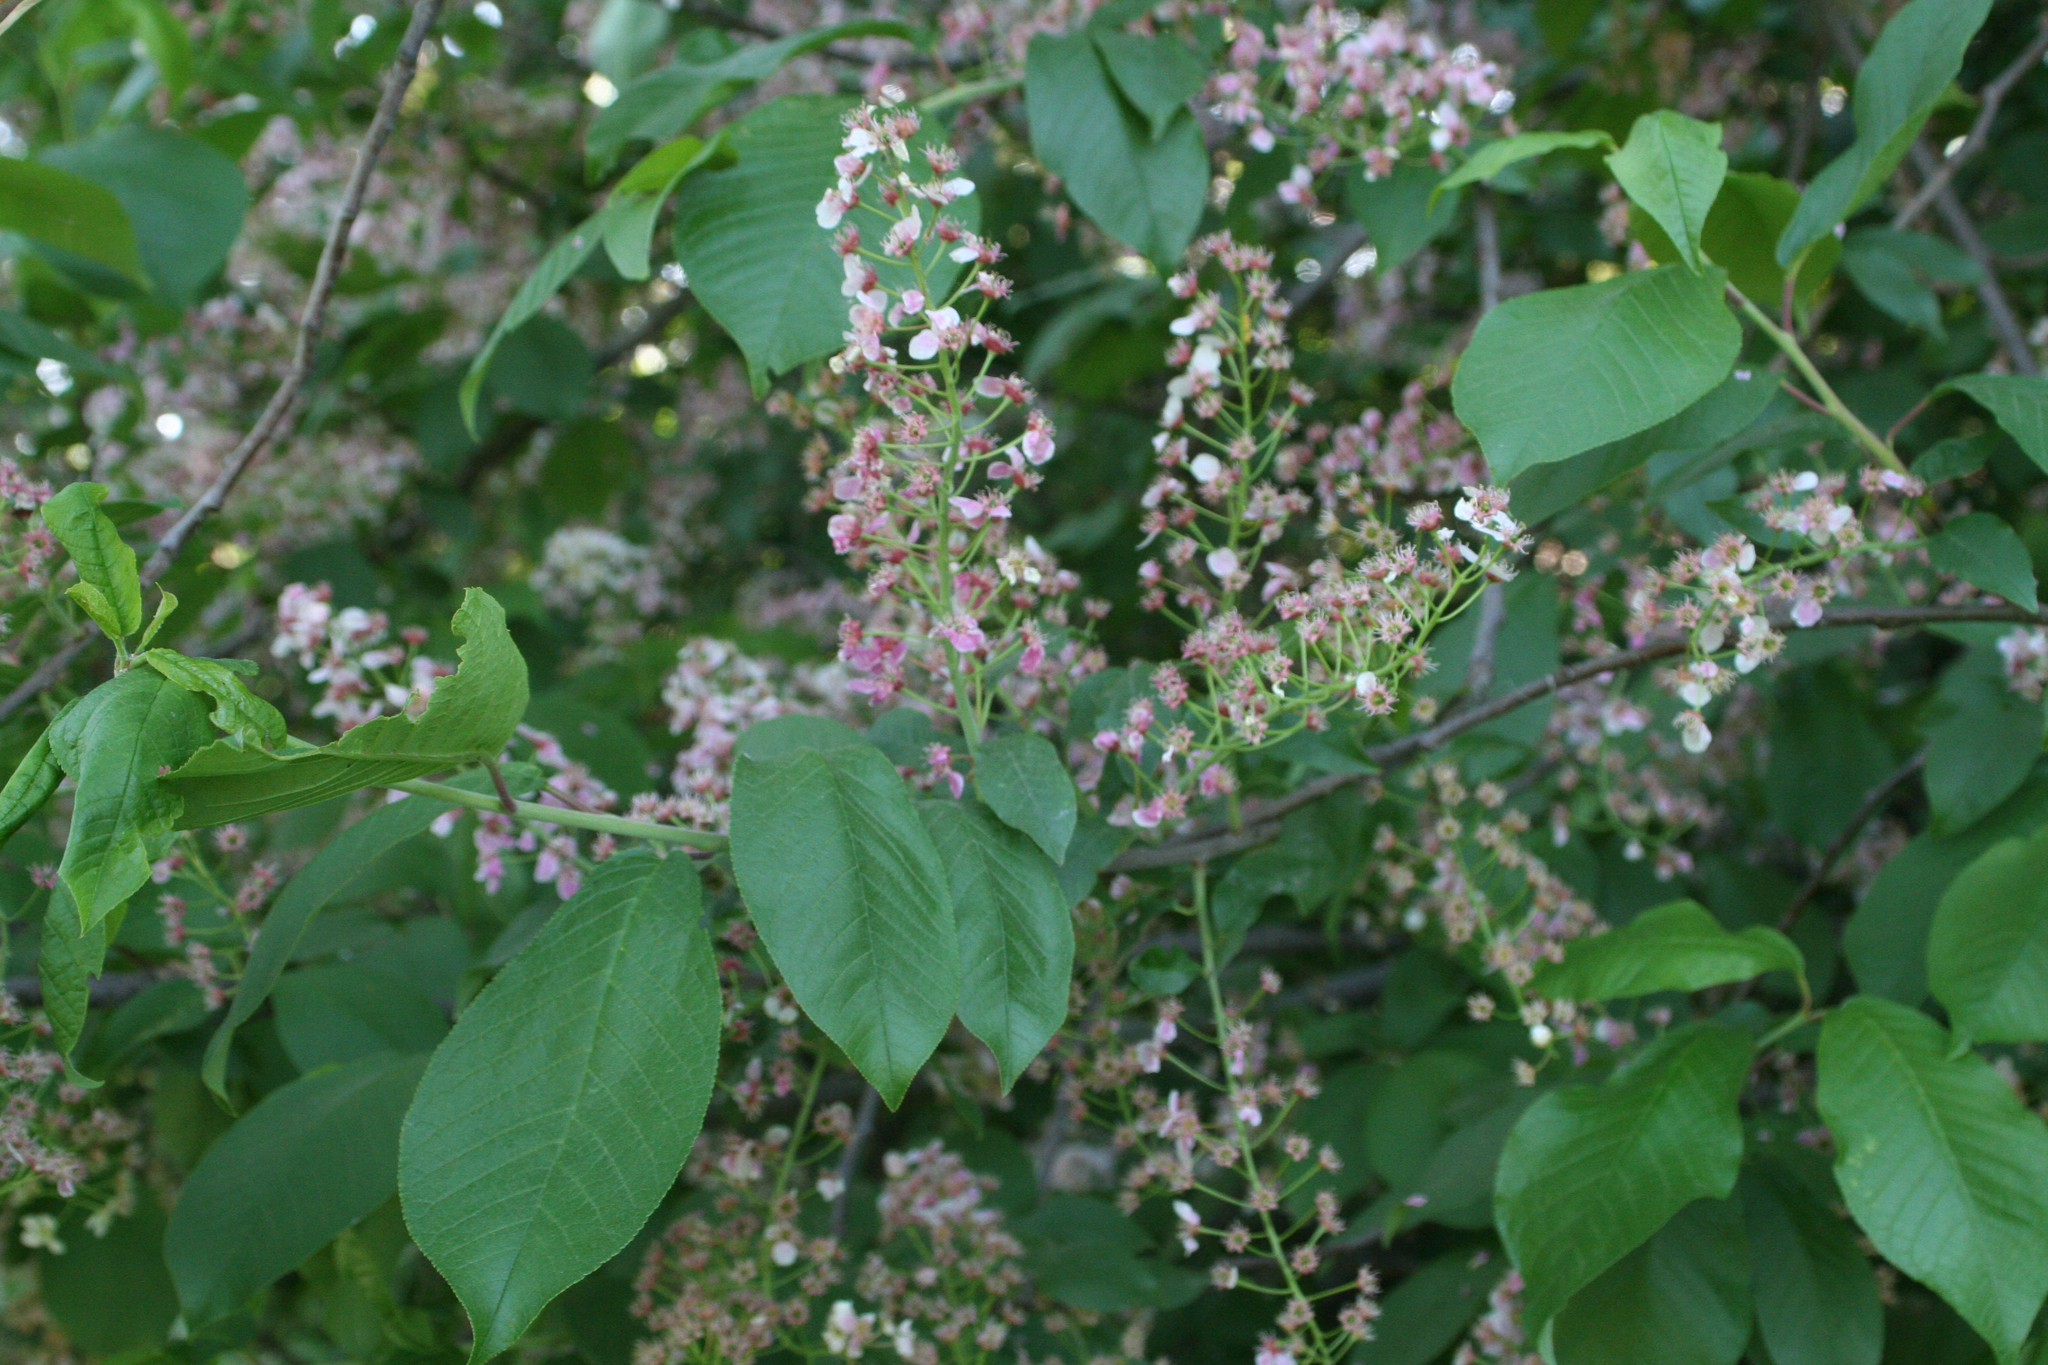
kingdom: Plantae
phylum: Tracheophyta
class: Magnoliopsida
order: Rosales
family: Rosaceae
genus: Prunus
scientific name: Prunus padus
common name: Bird cherry
